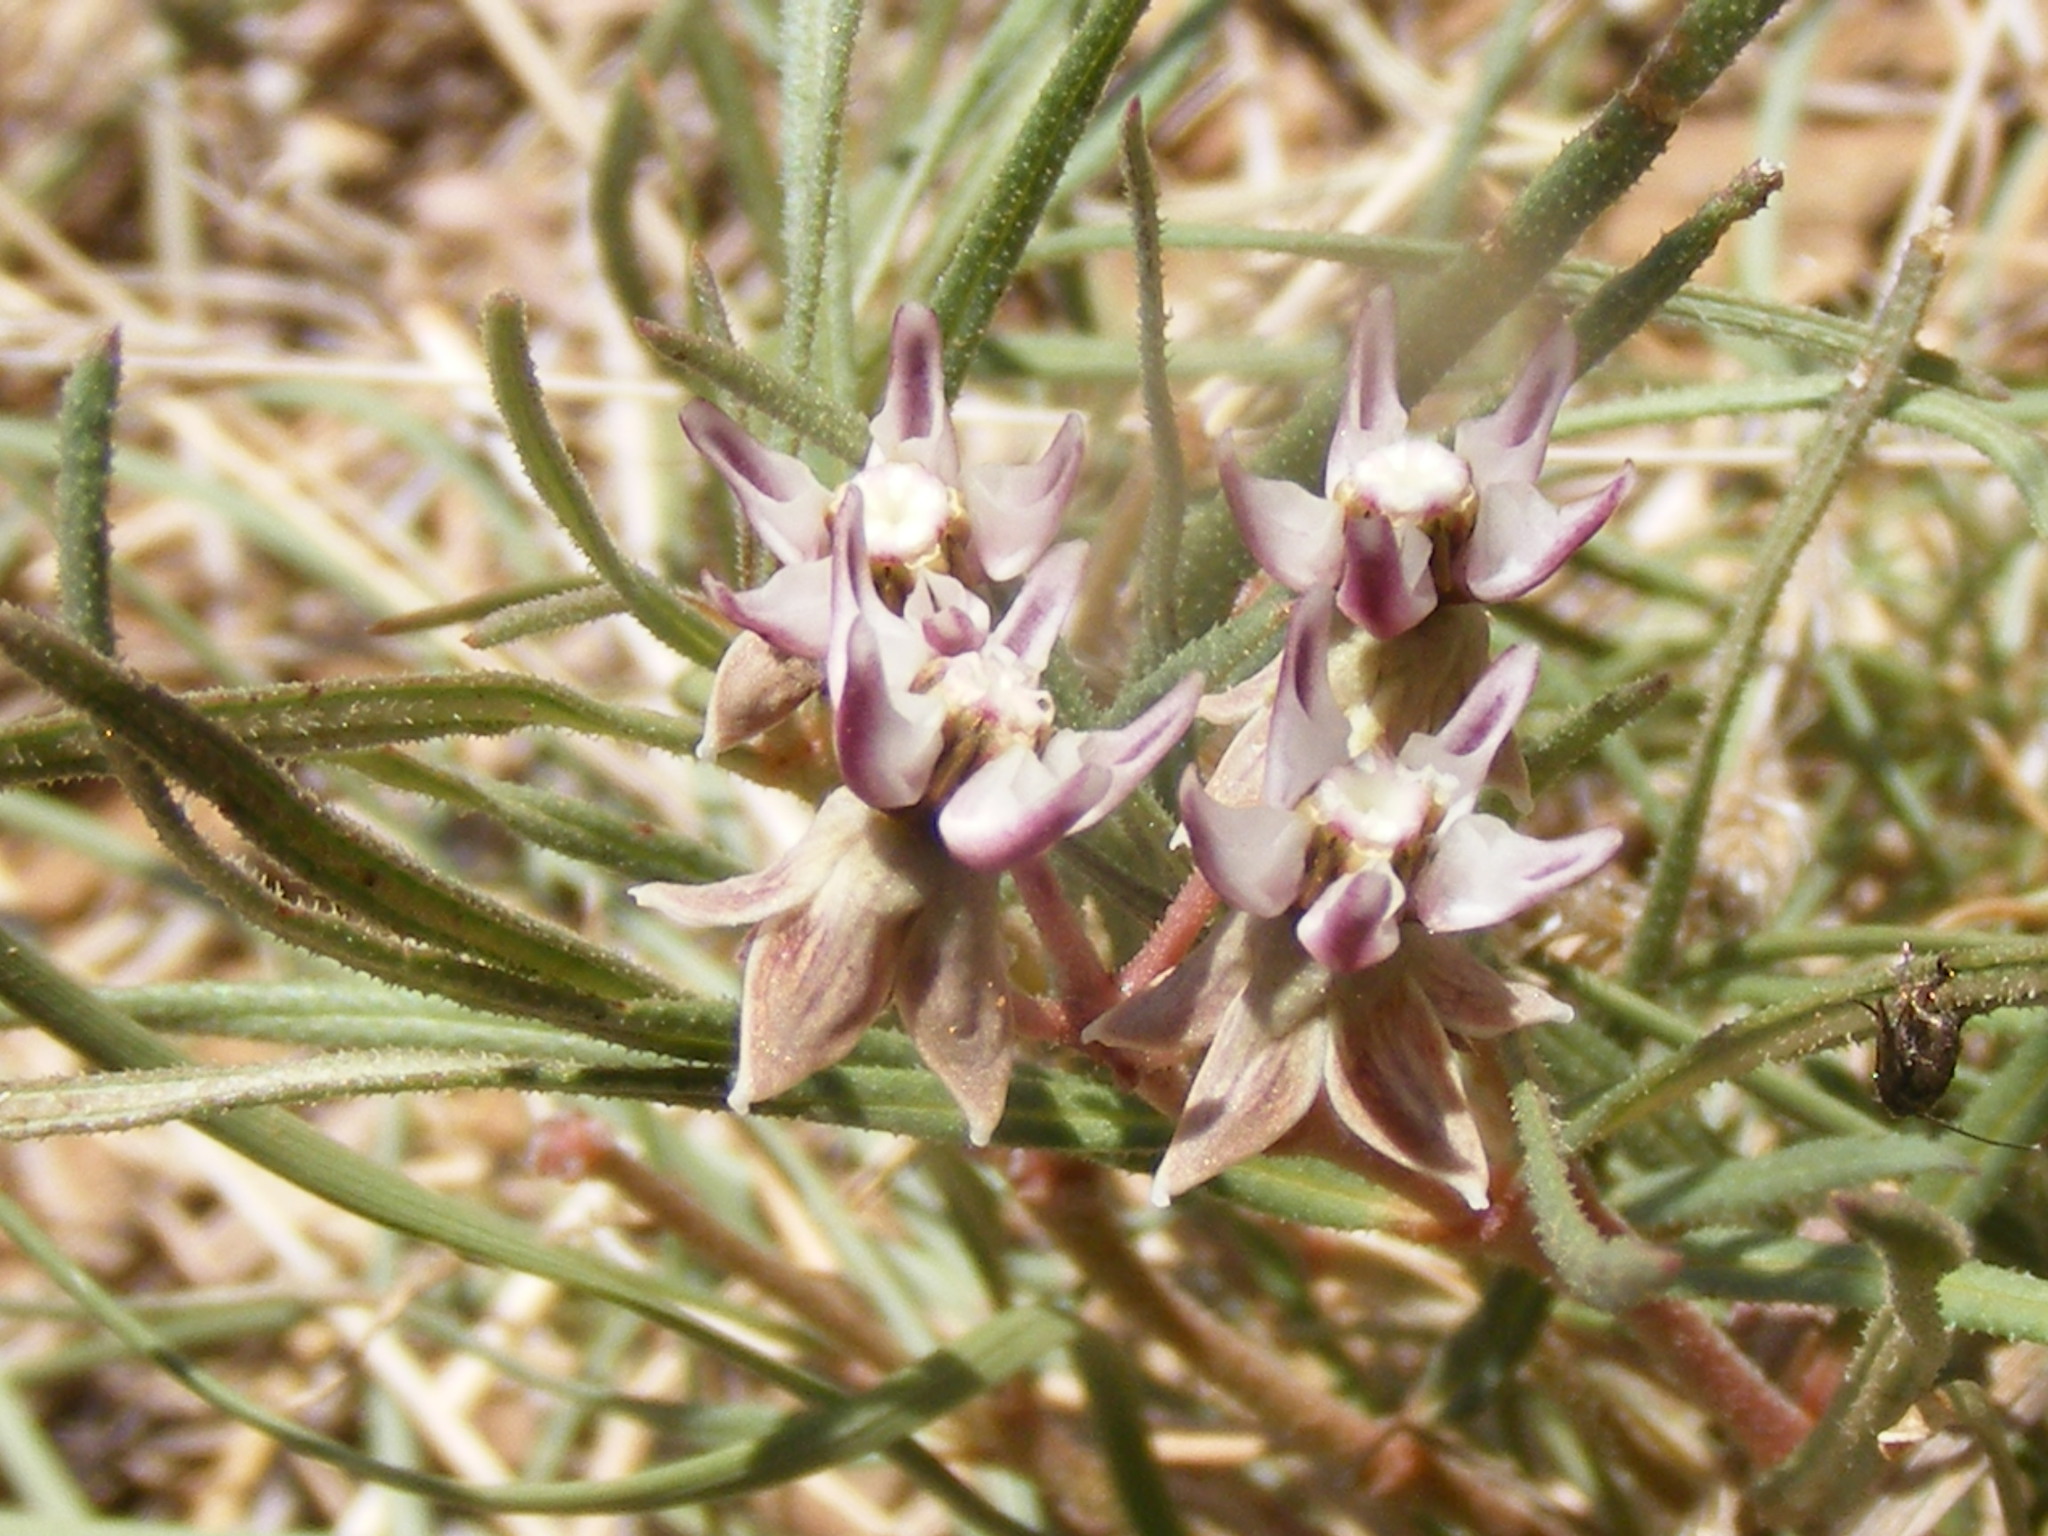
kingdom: Plantae
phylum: Tracheophyta
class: Magnoliopsida
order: Gentianales
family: Apocynaceae
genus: Asclepias
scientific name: Asclepias stellifera
